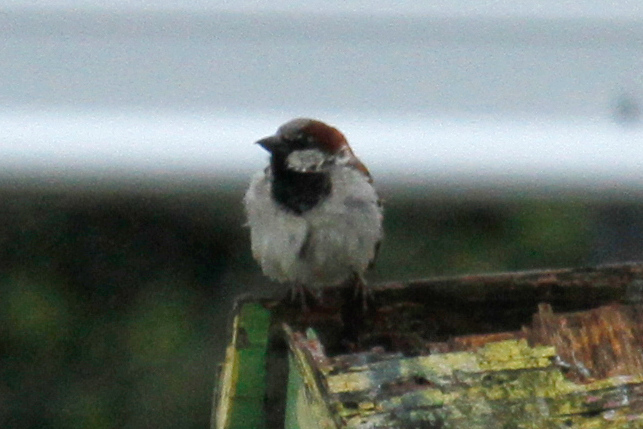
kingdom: Animalia
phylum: Chordata
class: Aves
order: Passeriformes
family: Passeridae
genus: Passer
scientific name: Passer domesticus
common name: House sparrow
